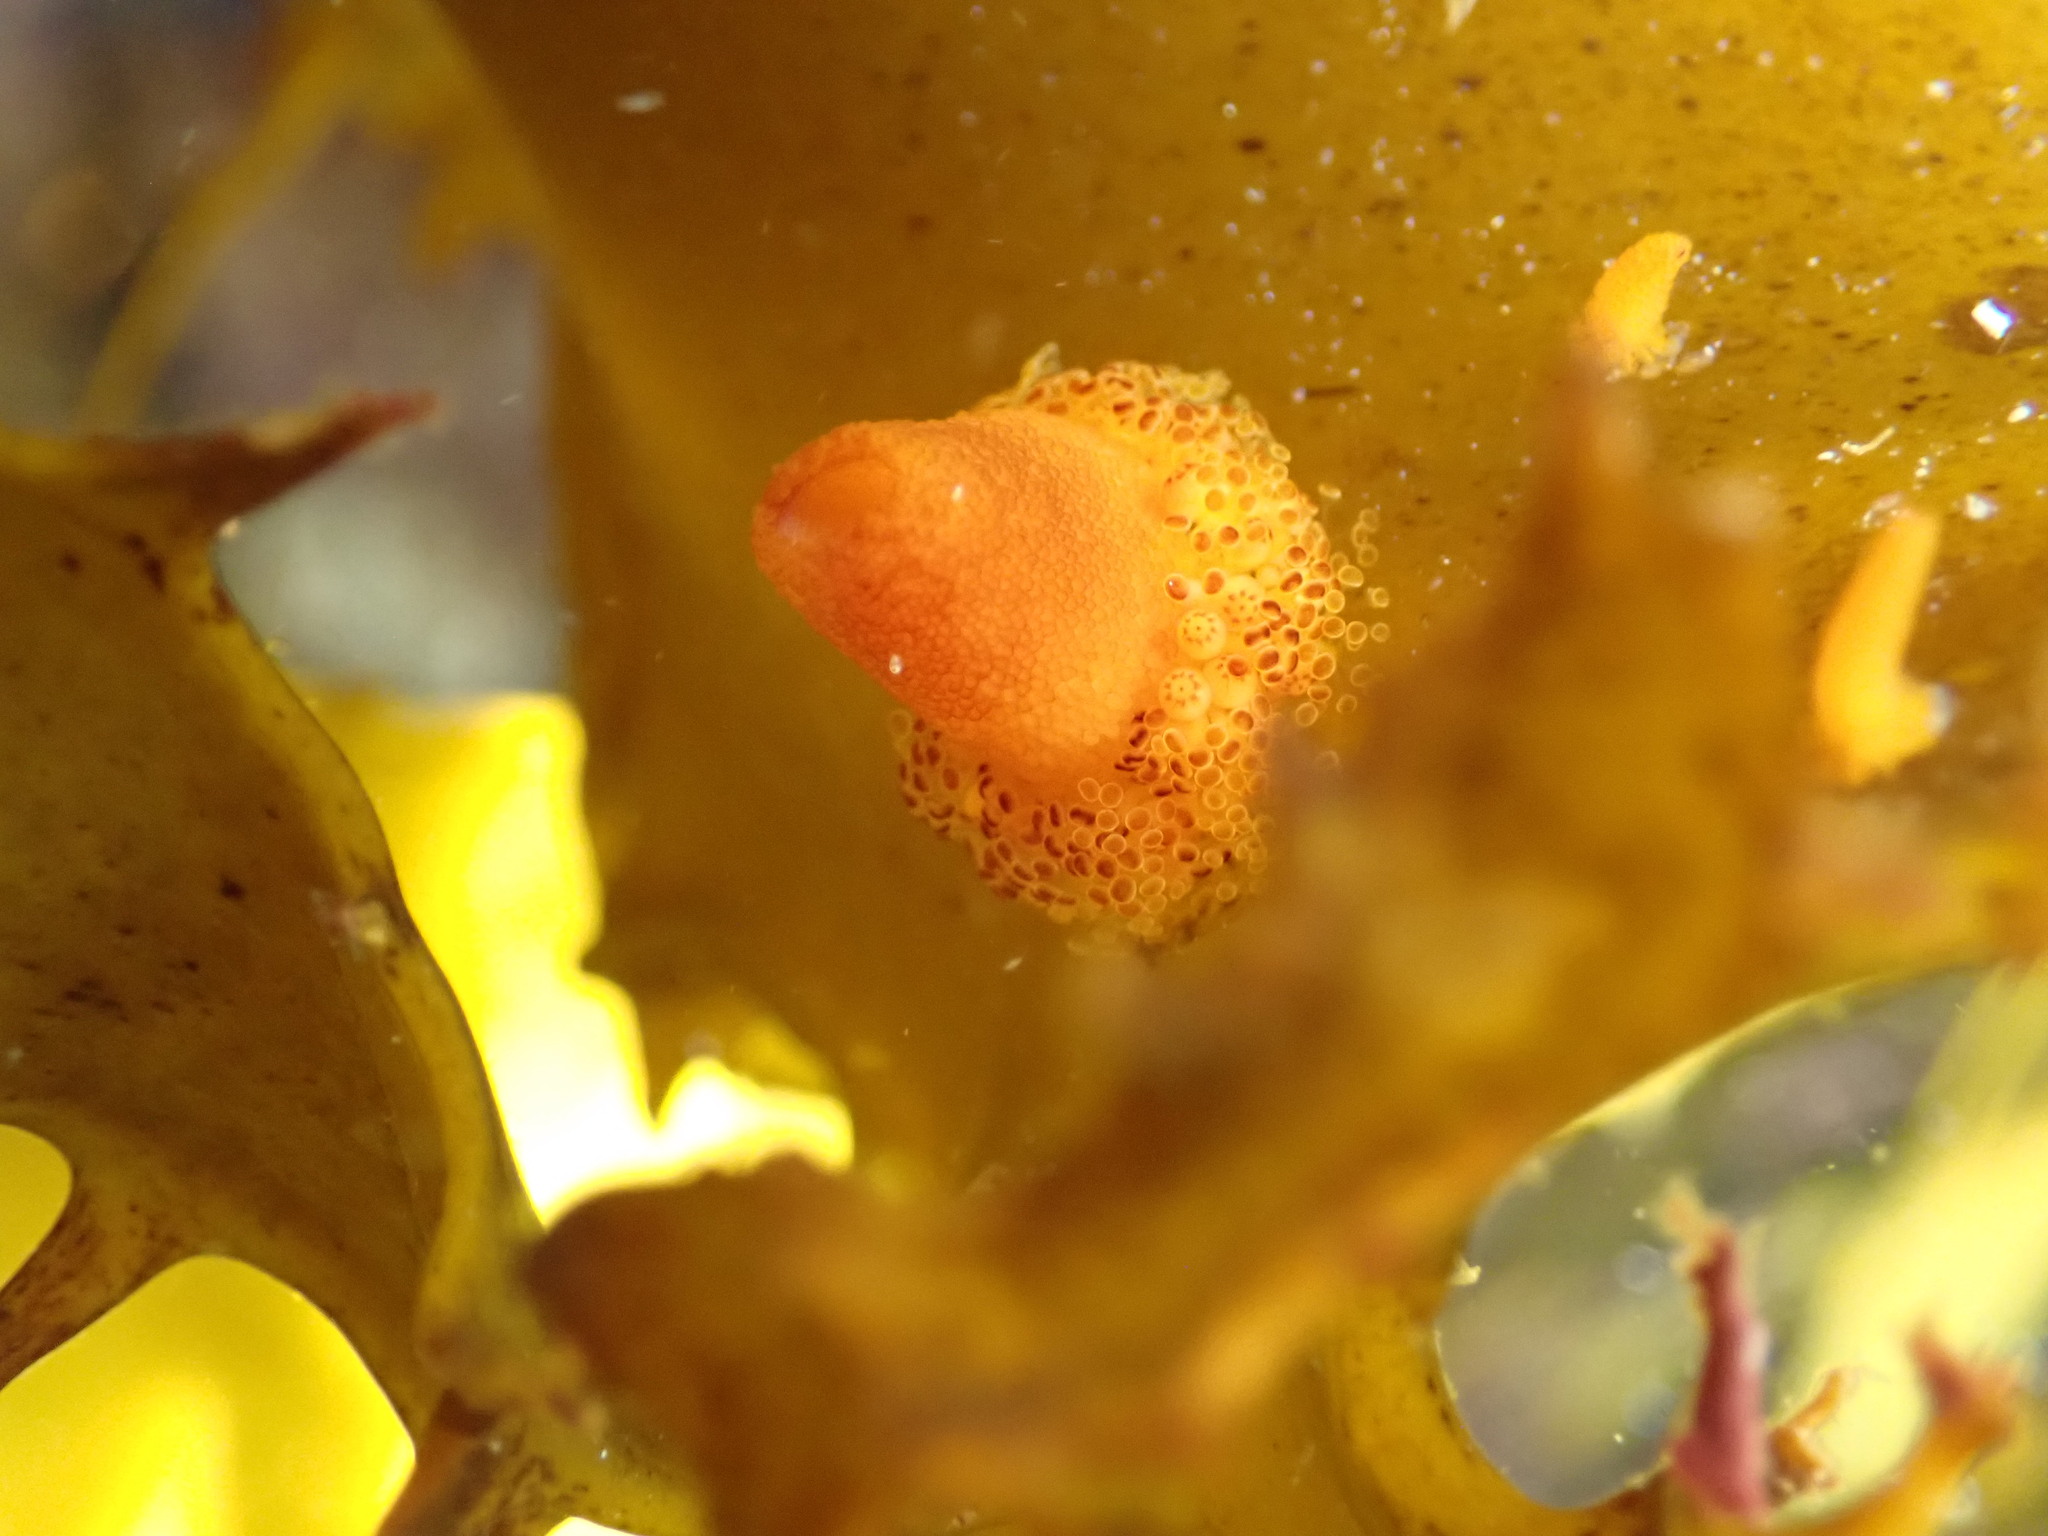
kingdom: Animalia
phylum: Cnidaria
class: Hydrozoa
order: Anthoathecata
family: Candelabridae
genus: Candelabrum
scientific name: Candelabrum australe
